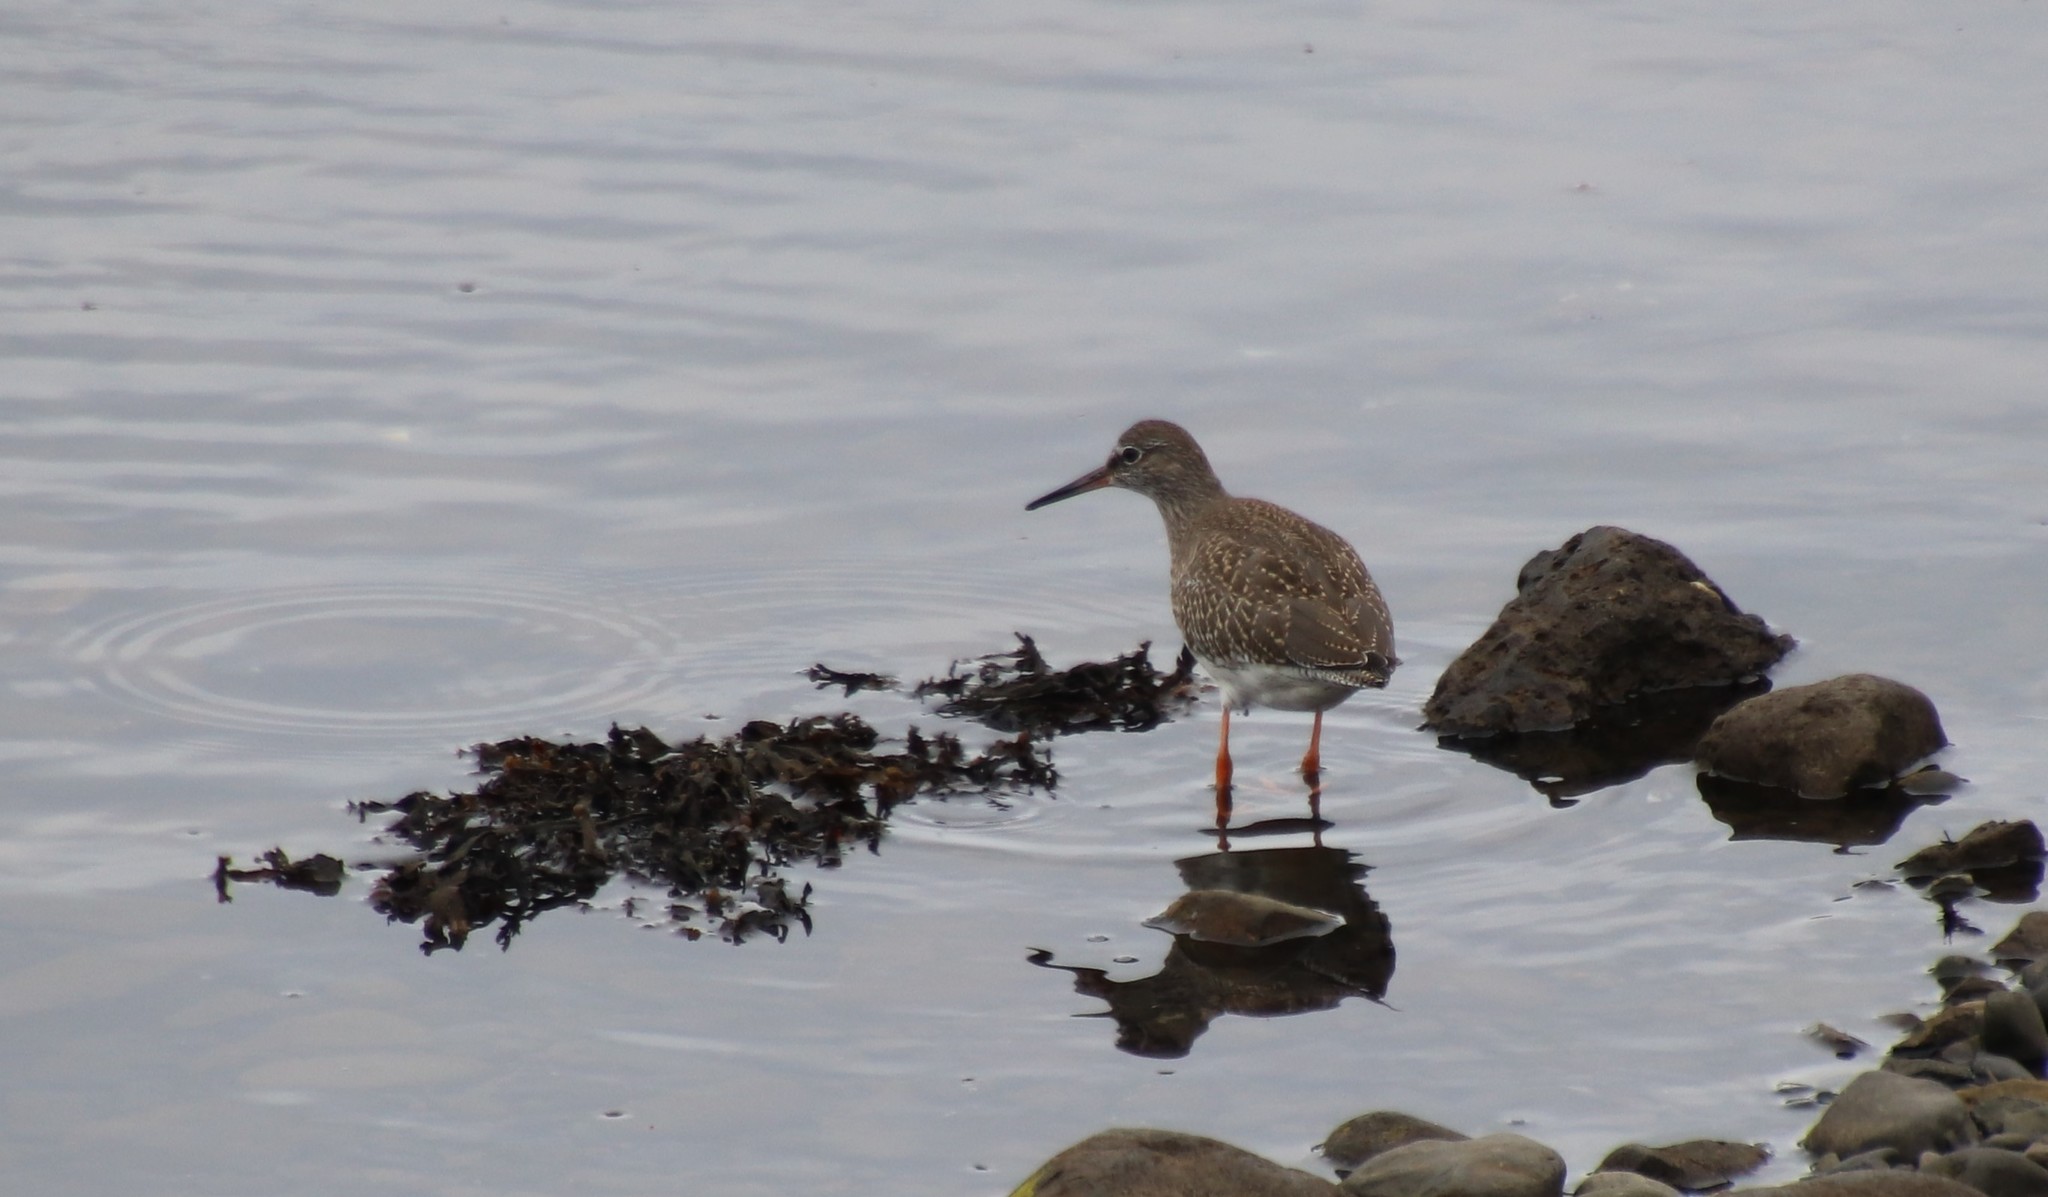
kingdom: Animalia
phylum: Chordata
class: Aves
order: Charadriiformes
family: Scolopacidae
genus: Tringa
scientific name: Tringa totanus
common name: Common redshank
